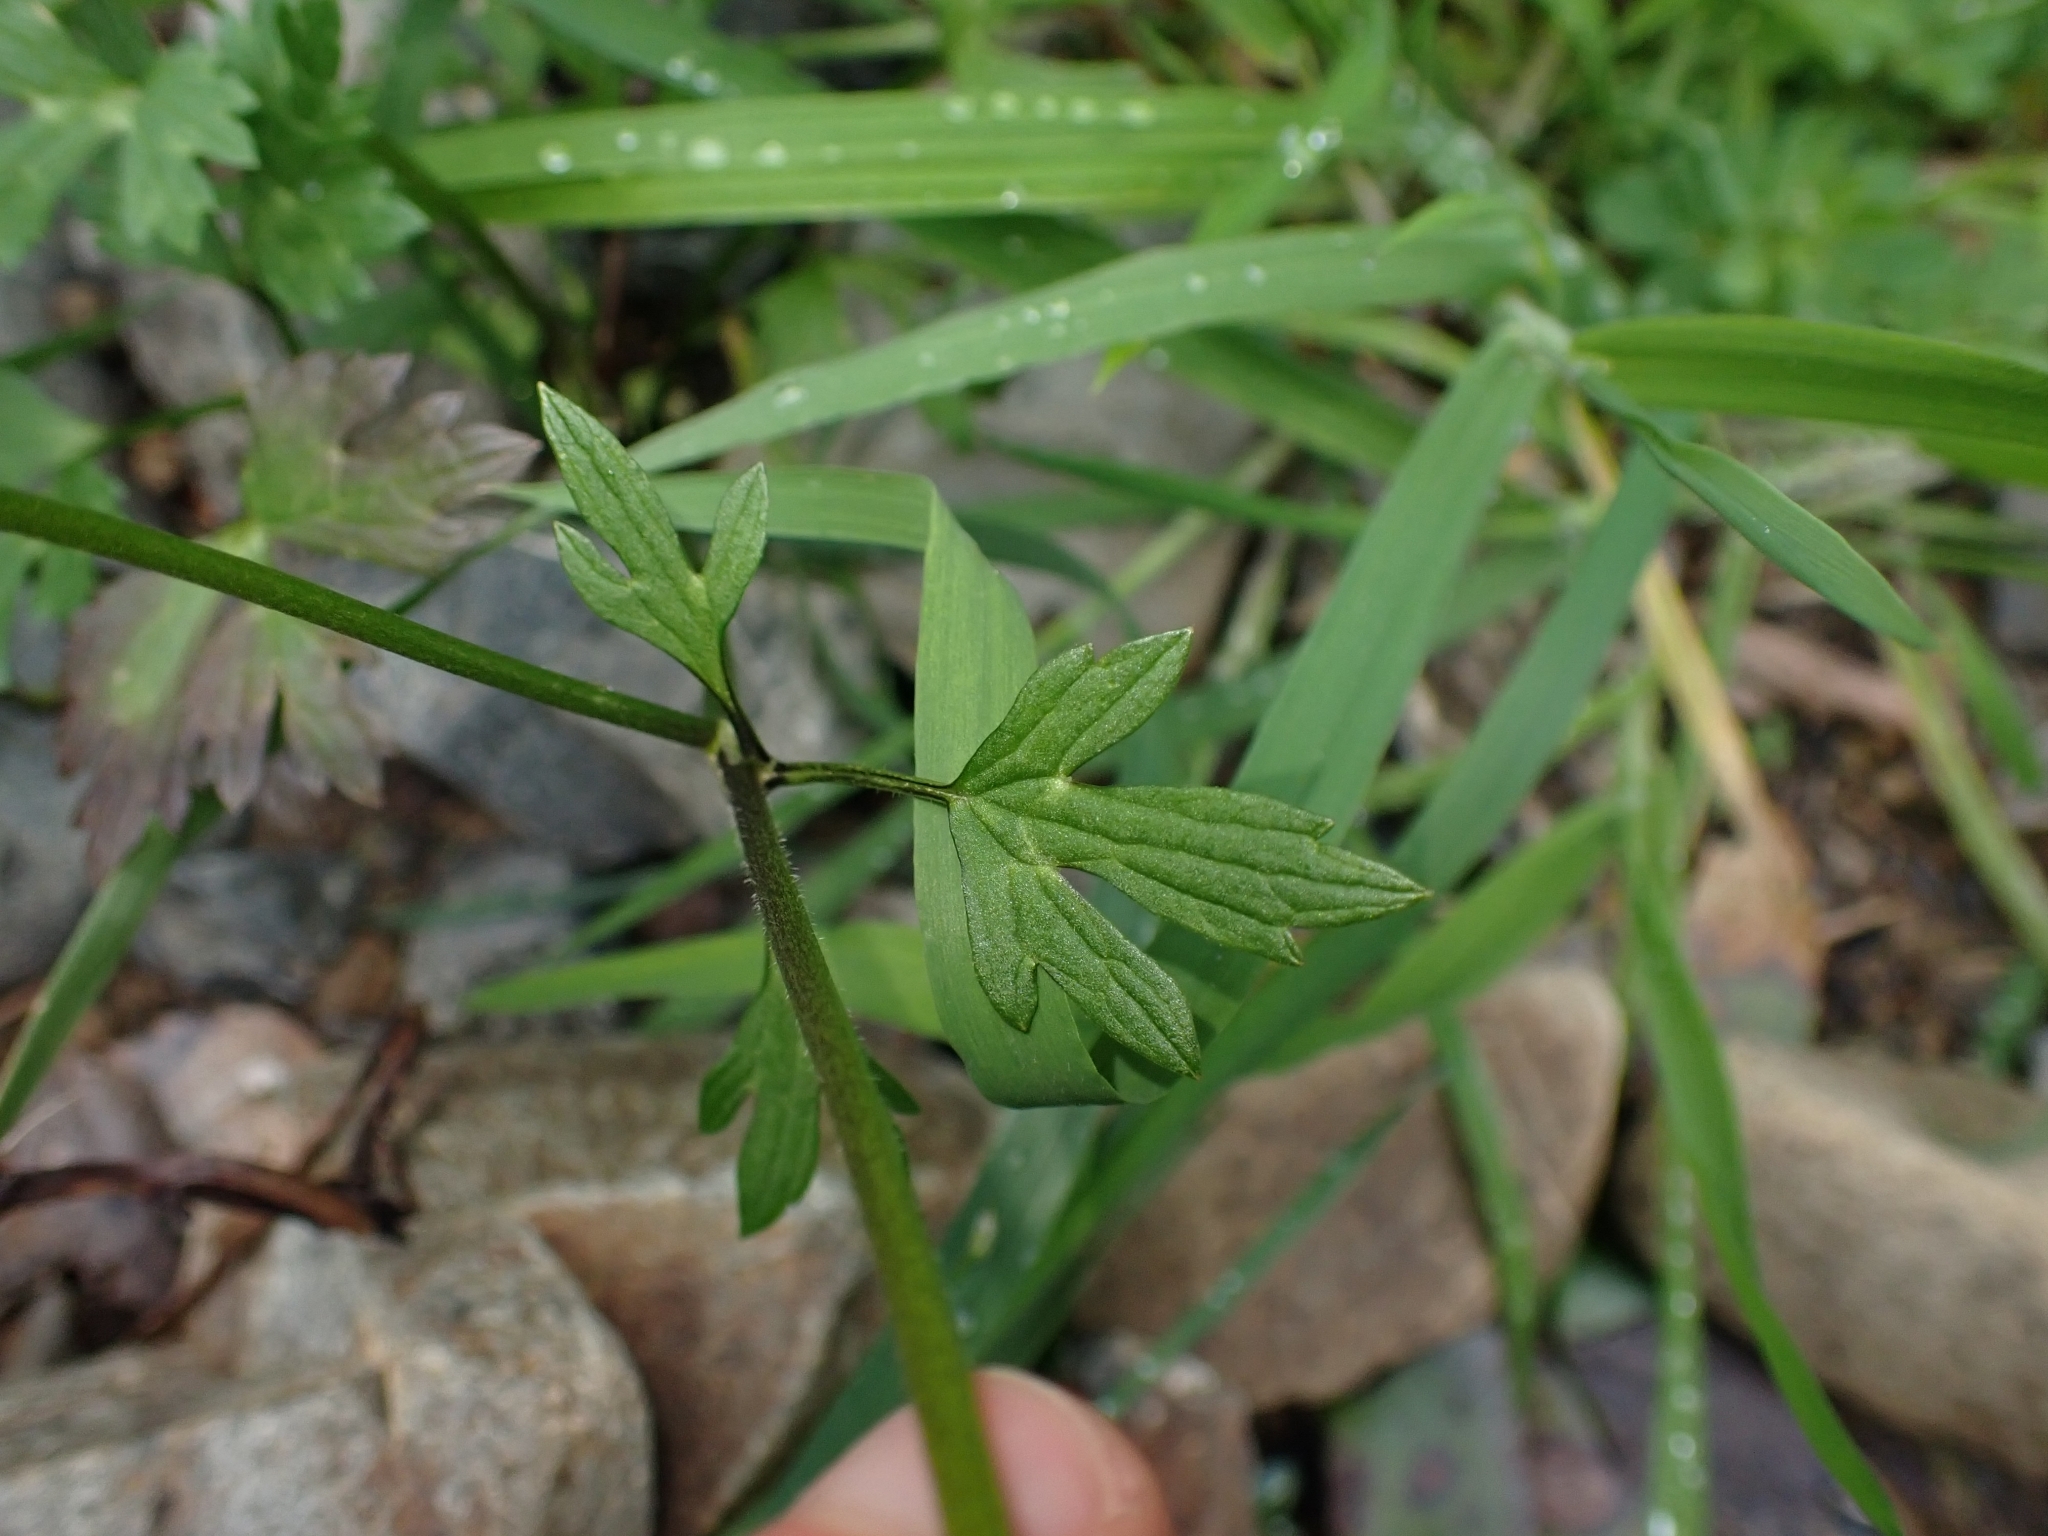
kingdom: Plantae
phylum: Tracheophyta
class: Magnoliopsida
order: Ranunculales
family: Ranunculaceae
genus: Ranunculus
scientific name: Ranunculus repens
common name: Creeping buttercup
